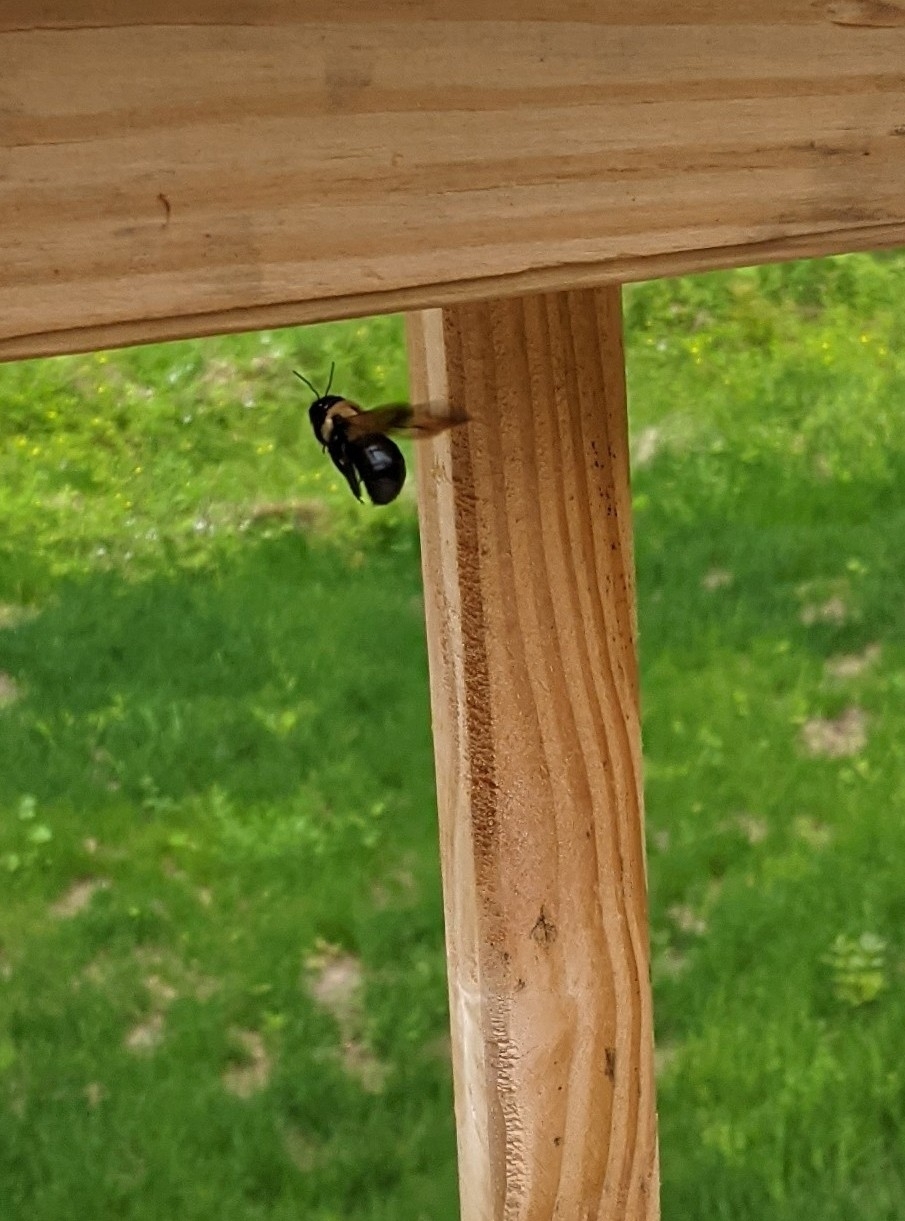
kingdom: Animalia
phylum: Arthropoda
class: Insecta
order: Hymenoptera
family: Apidae
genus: Xylocopa
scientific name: Xylocopa virginica
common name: Carpenter bee
